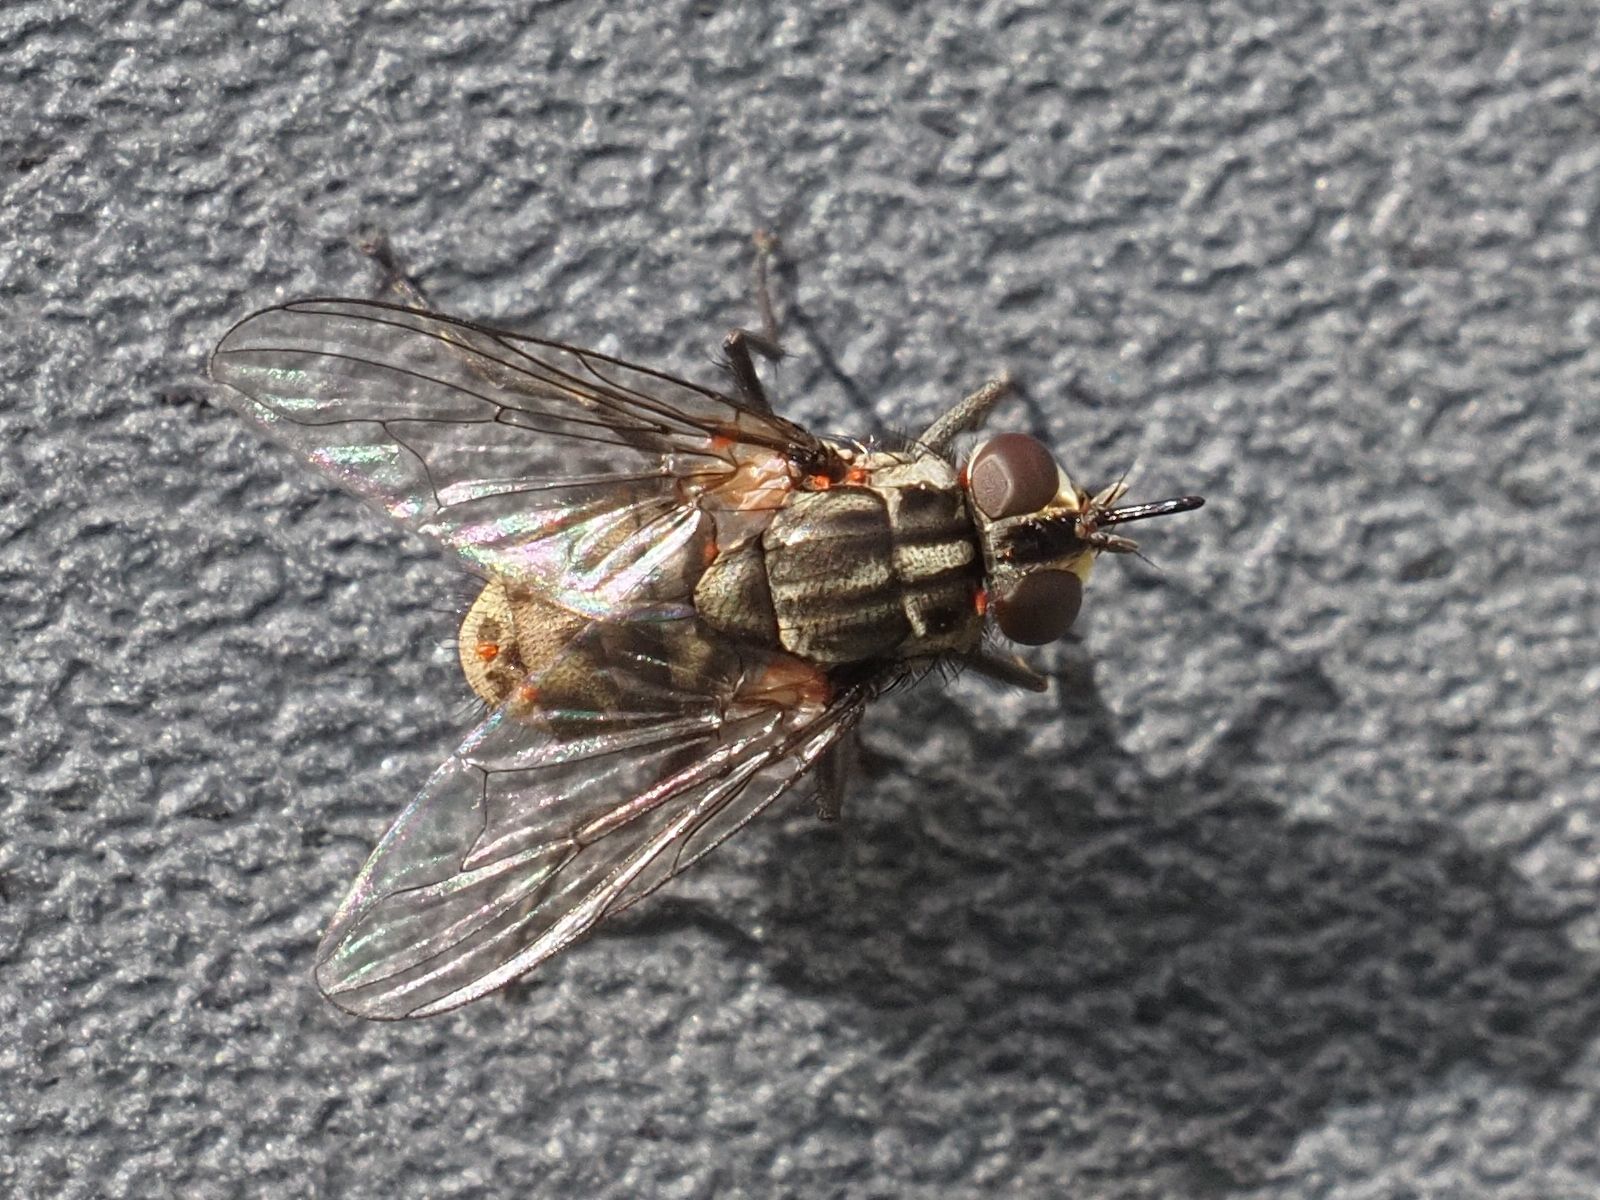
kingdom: Animalia
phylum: Arthropoda
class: Insecta
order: Diptera
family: Muscidae
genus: Stomoxys
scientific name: Stomoxys calcitrans
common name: Stable fly
